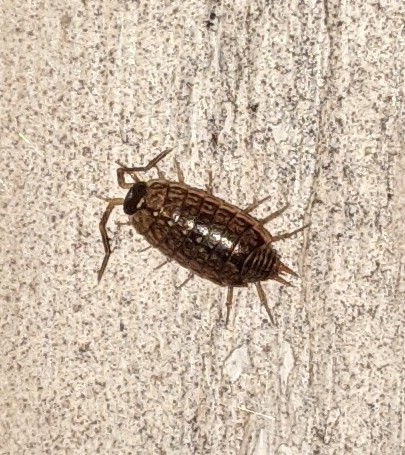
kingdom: Animalia
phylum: Arthropoda
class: Malacostraca
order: Isopoda
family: Philosciidae
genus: Philoscia
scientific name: Philoscia muscorum
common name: Common striped woodlouse
